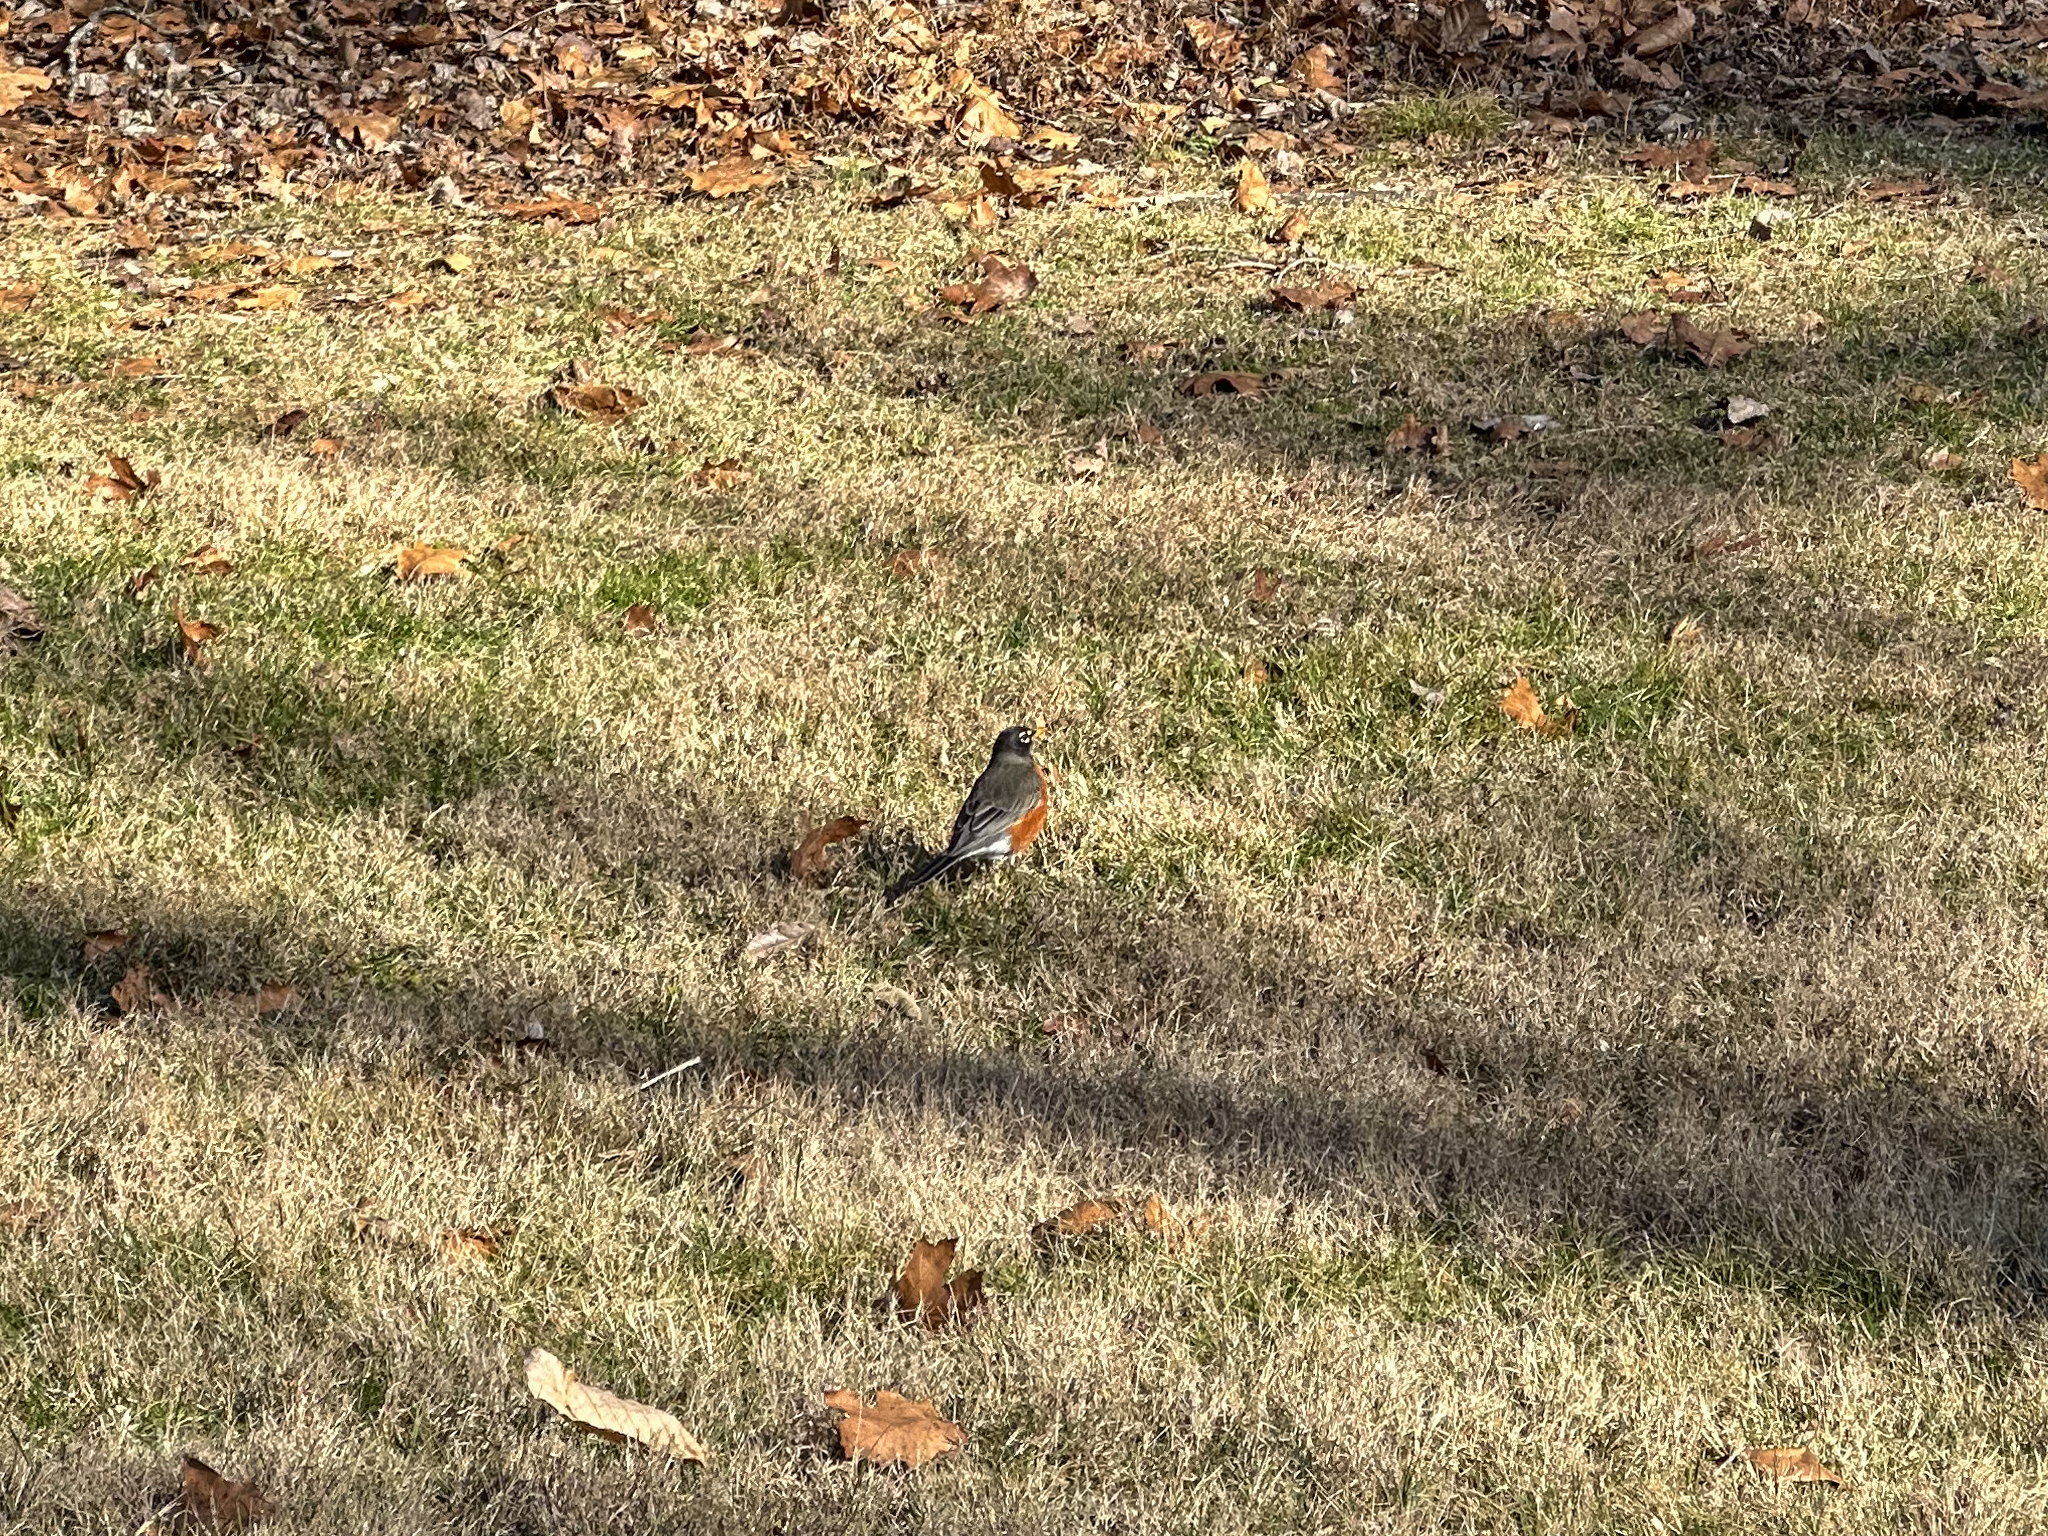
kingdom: Animalia
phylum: Chordata
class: Aves
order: Passeriformes
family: Turdidae
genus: Turdus
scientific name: Turdus migratorius
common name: American robin
